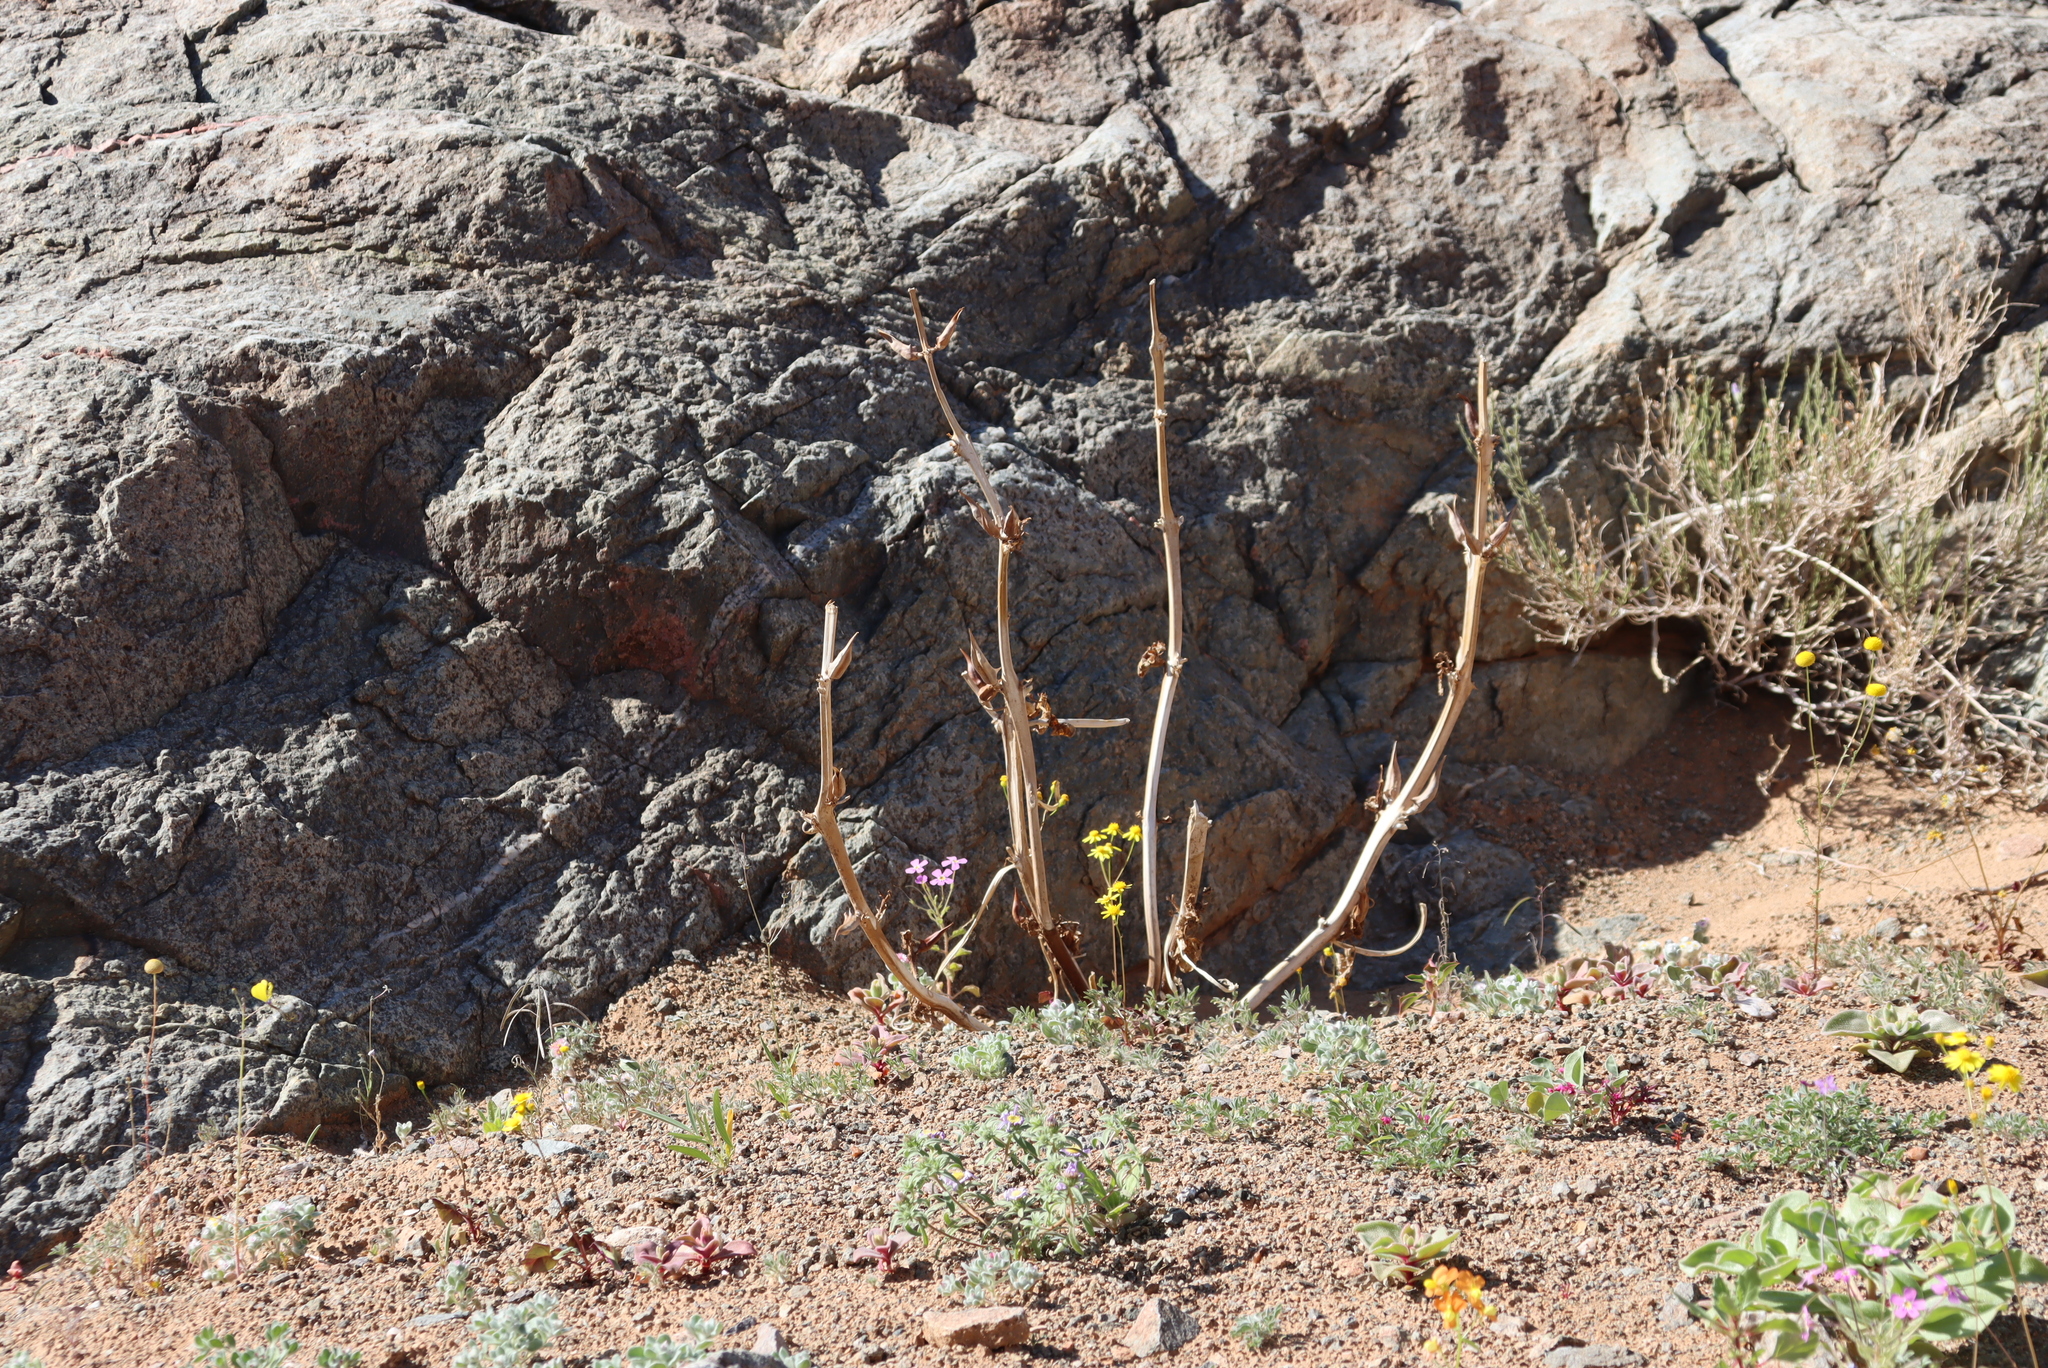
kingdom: Plantae
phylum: Tracheophyta
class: Magnoliopsida
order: Lamiales
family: Pedaliaceae
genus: Rogeria
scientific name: Rogeria longiflora
